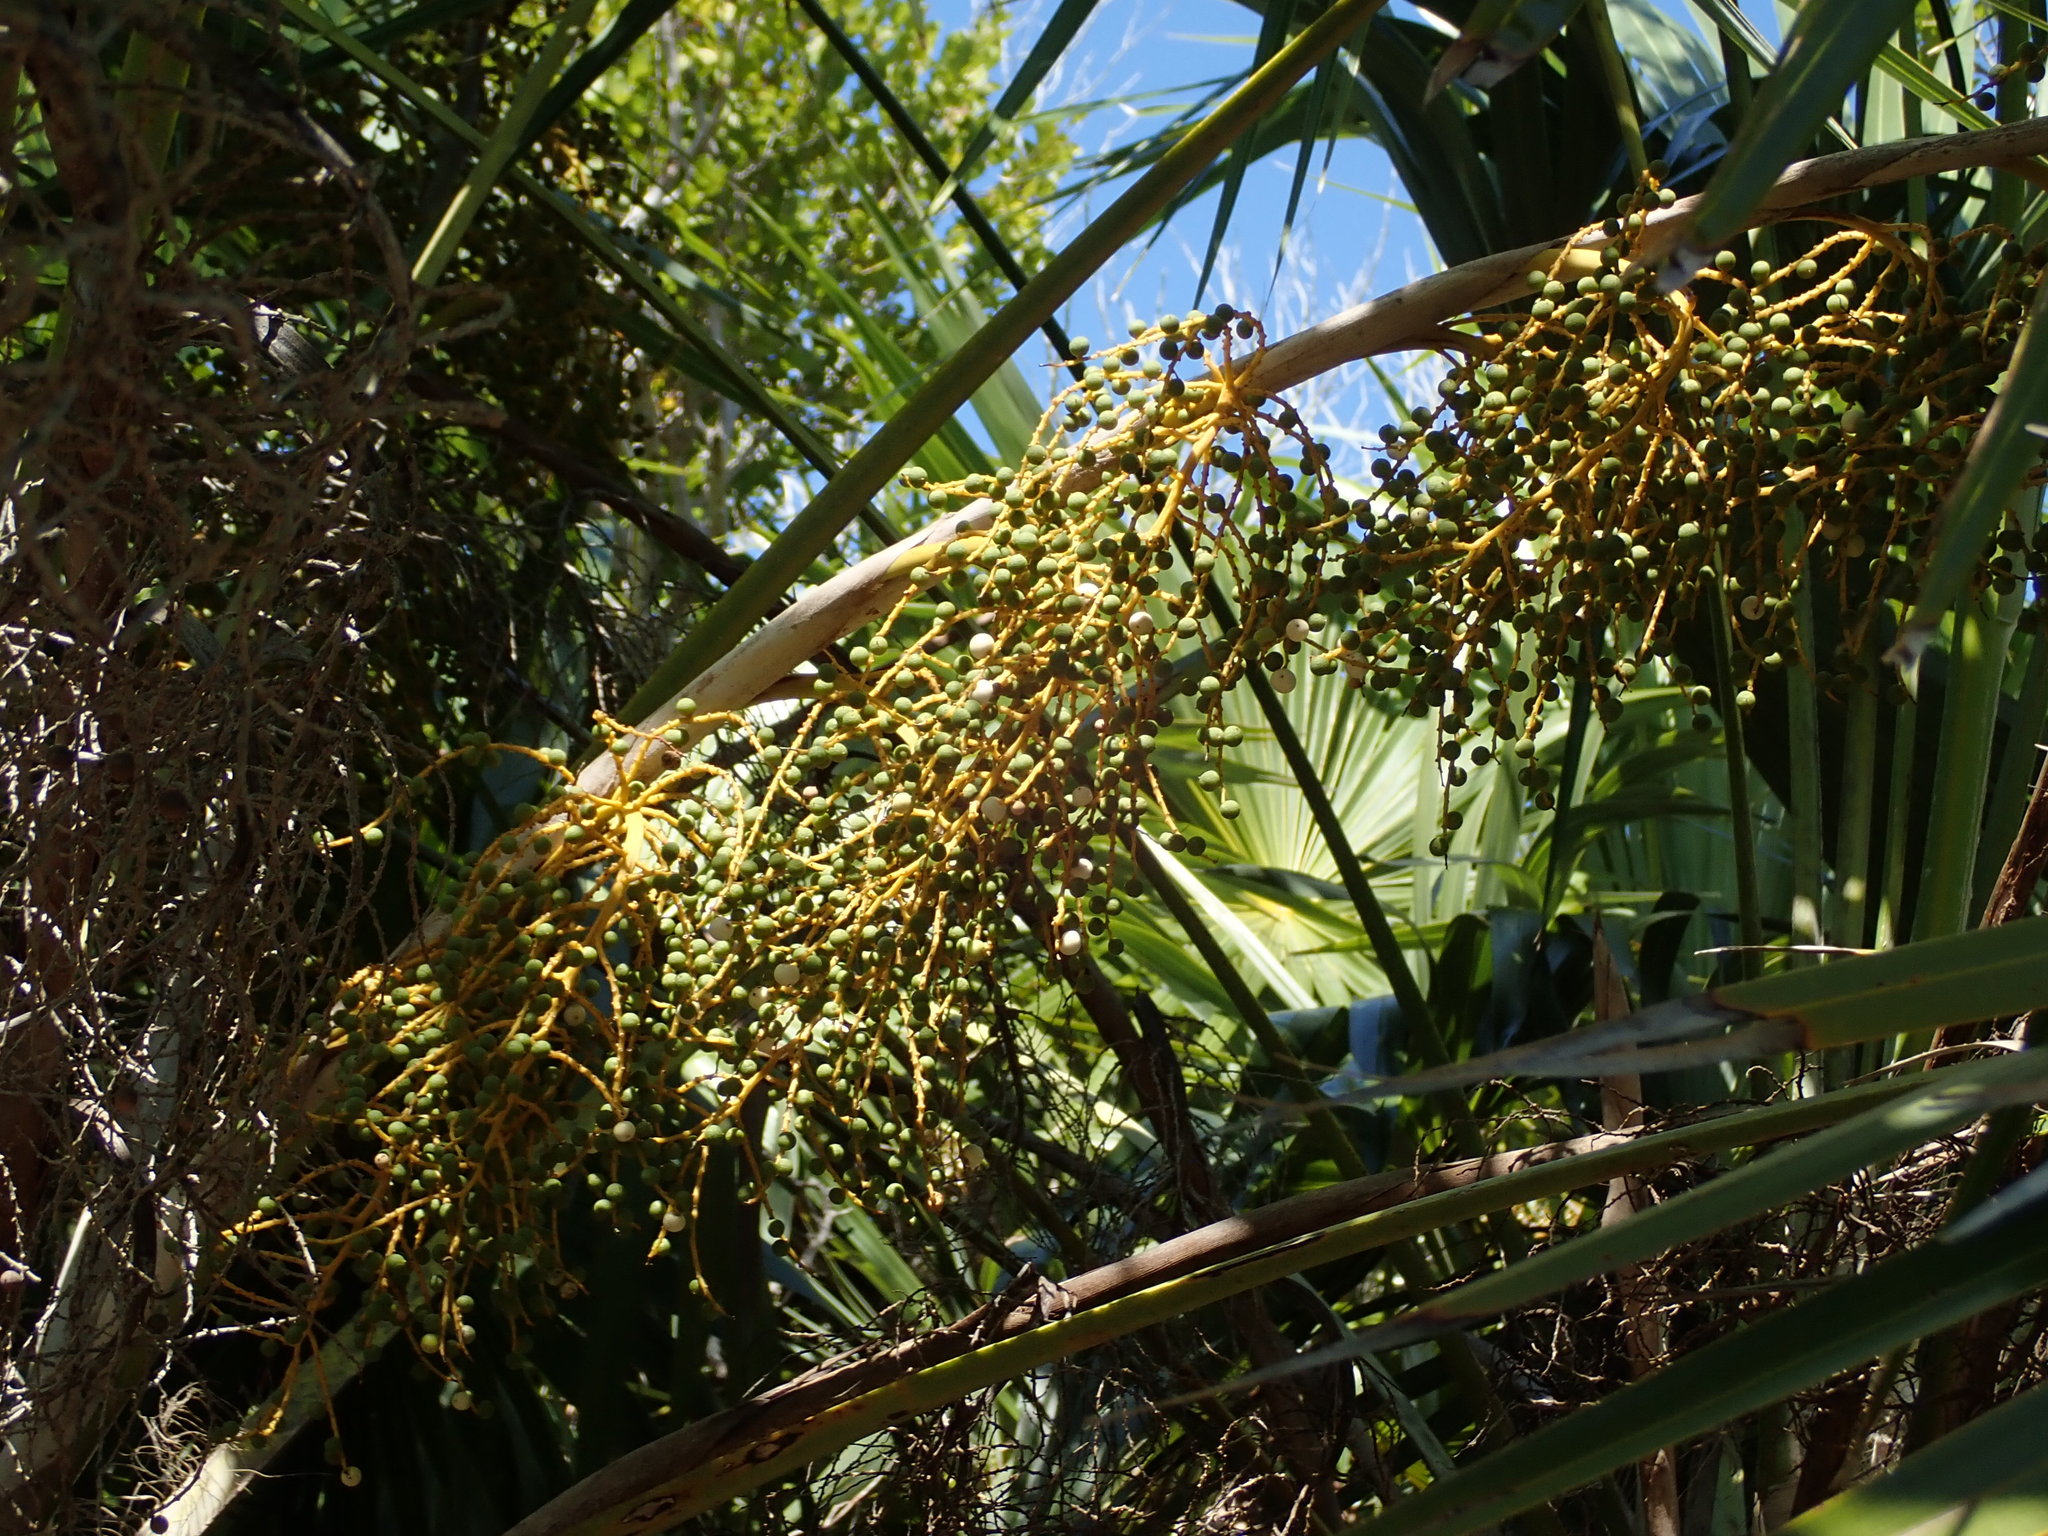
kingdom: Plantae
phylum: Tracheophyta
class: Liliopsida
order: Arecales
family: Arecaceae
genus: Leucothrinax
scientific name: Leucothrinax morrisii
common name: Key palm
